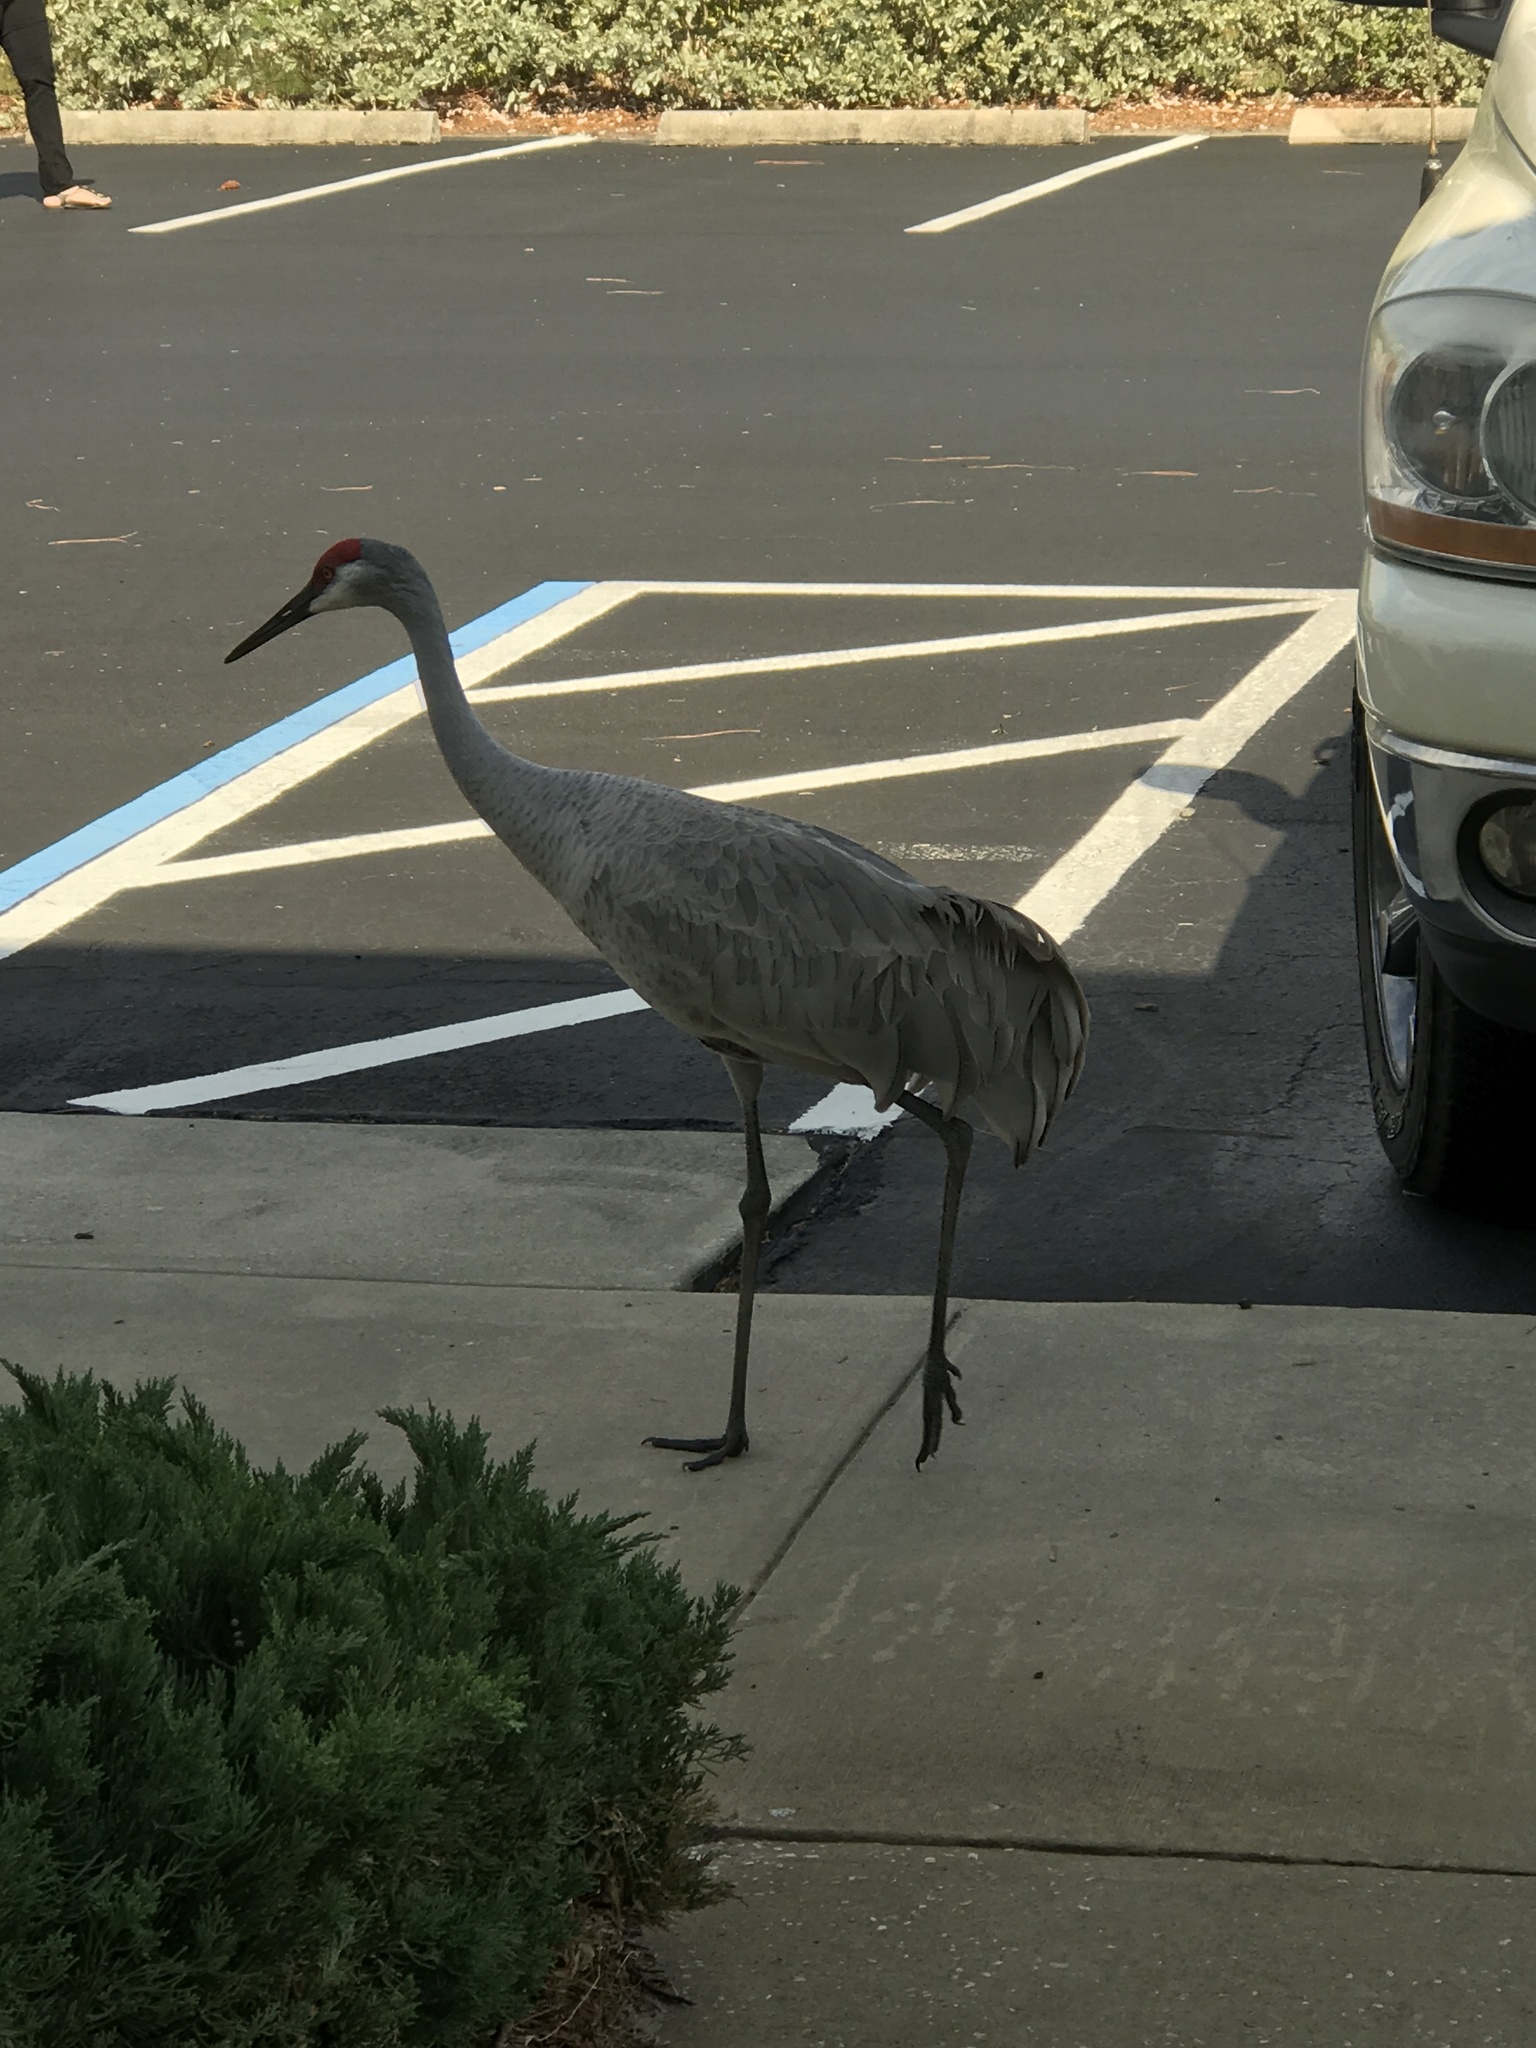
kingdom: Animalia
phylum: Chordata
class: Aves
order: Gruiformes
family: Gruidae
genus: Grus
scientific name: Grus canadensis
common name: Sandhill crane
